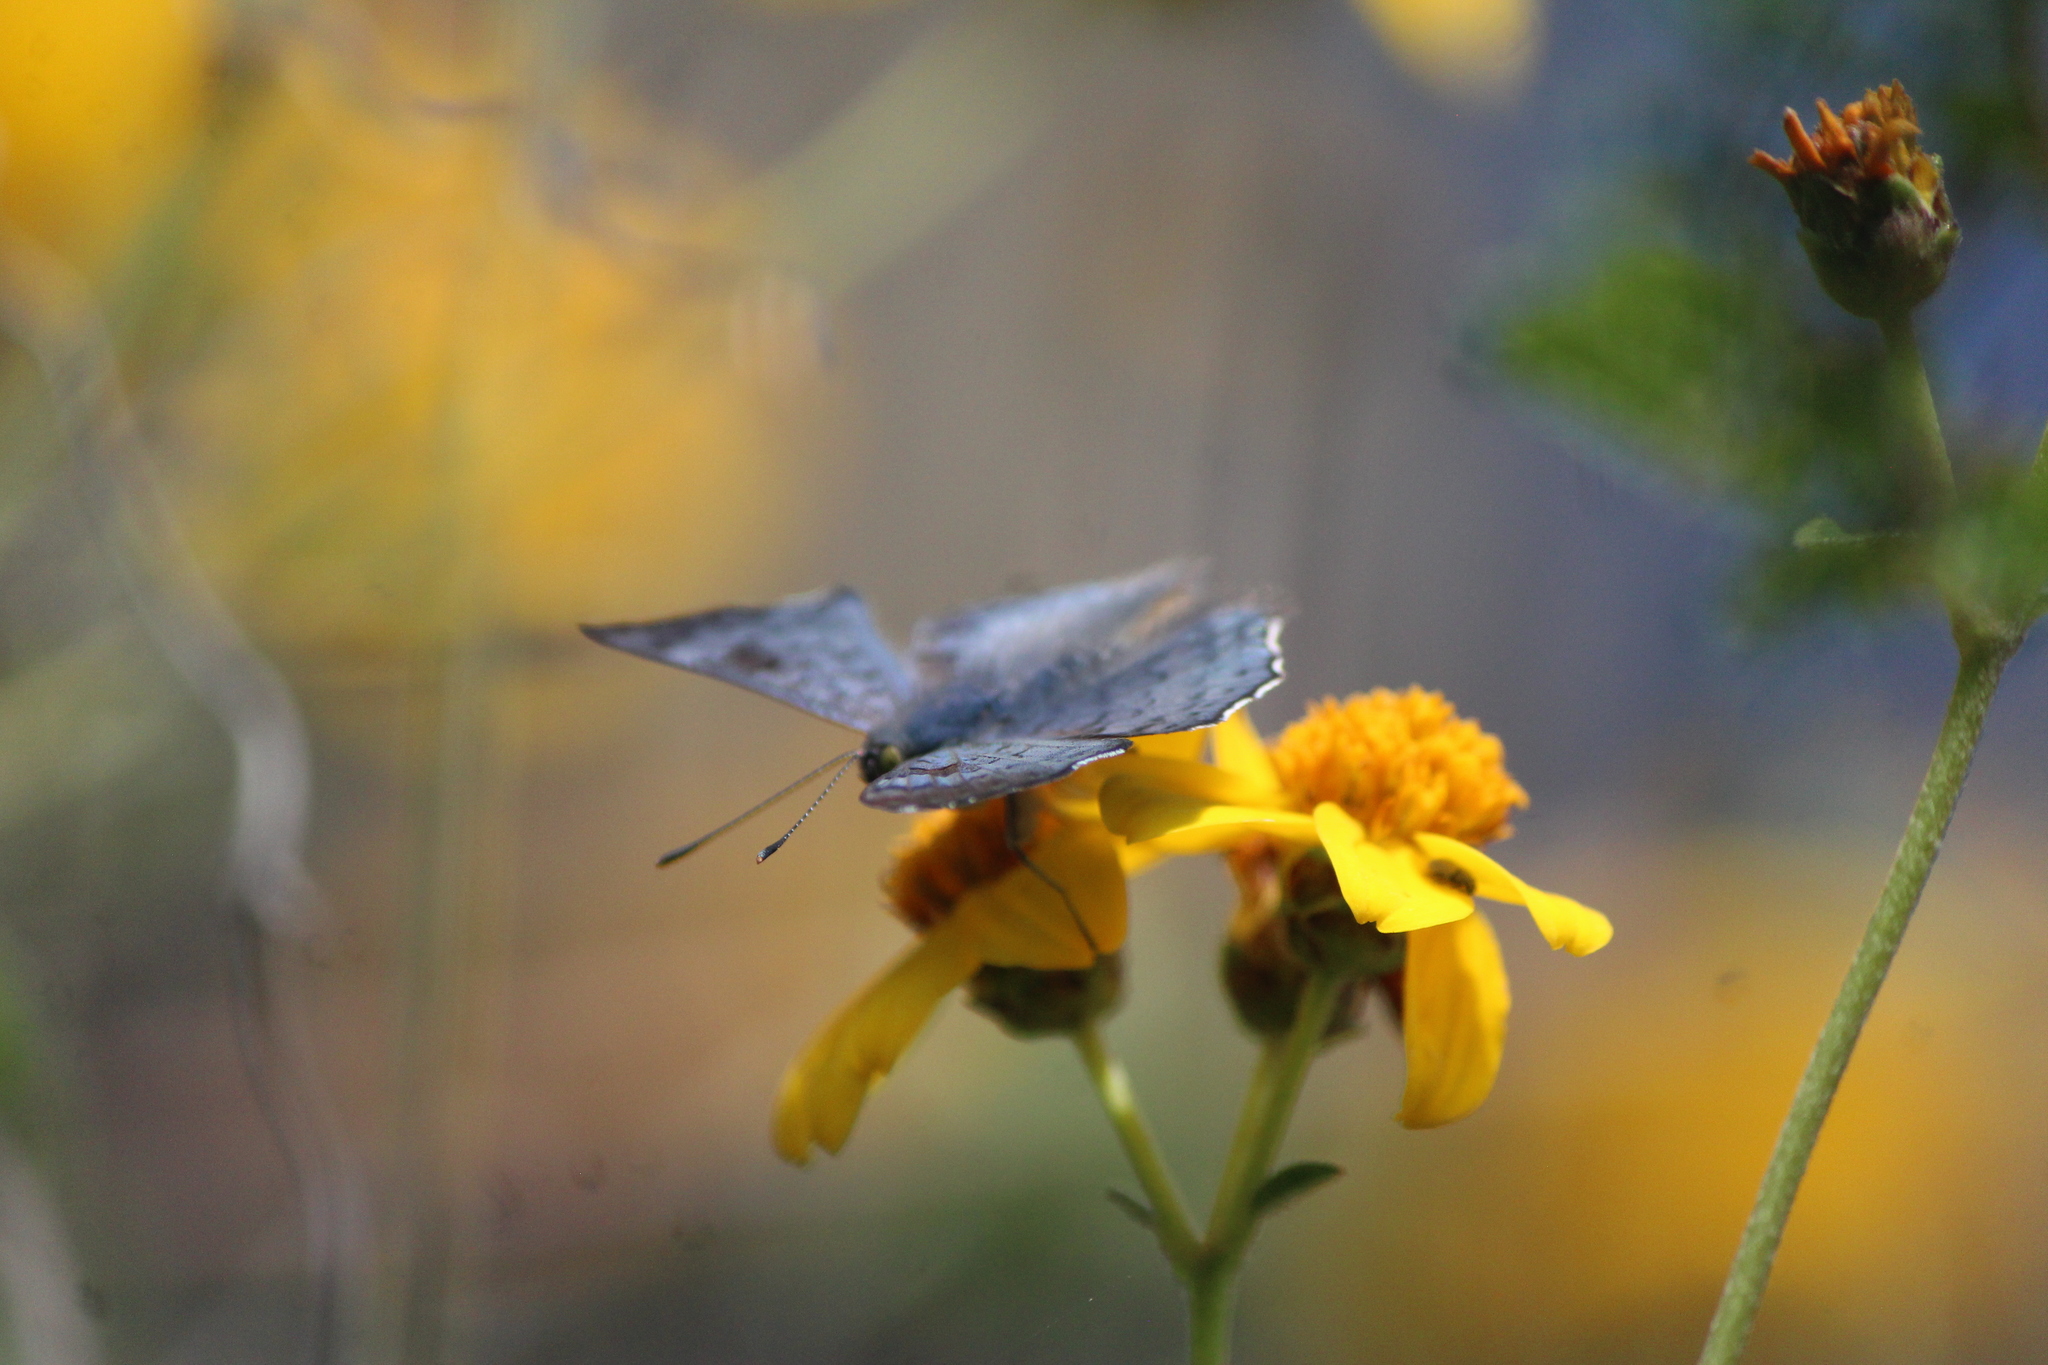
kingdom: Animalia
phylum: Arthropoda
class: Insecta
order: Lepidoptera
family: Riodinidae
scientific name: Riodinidae
